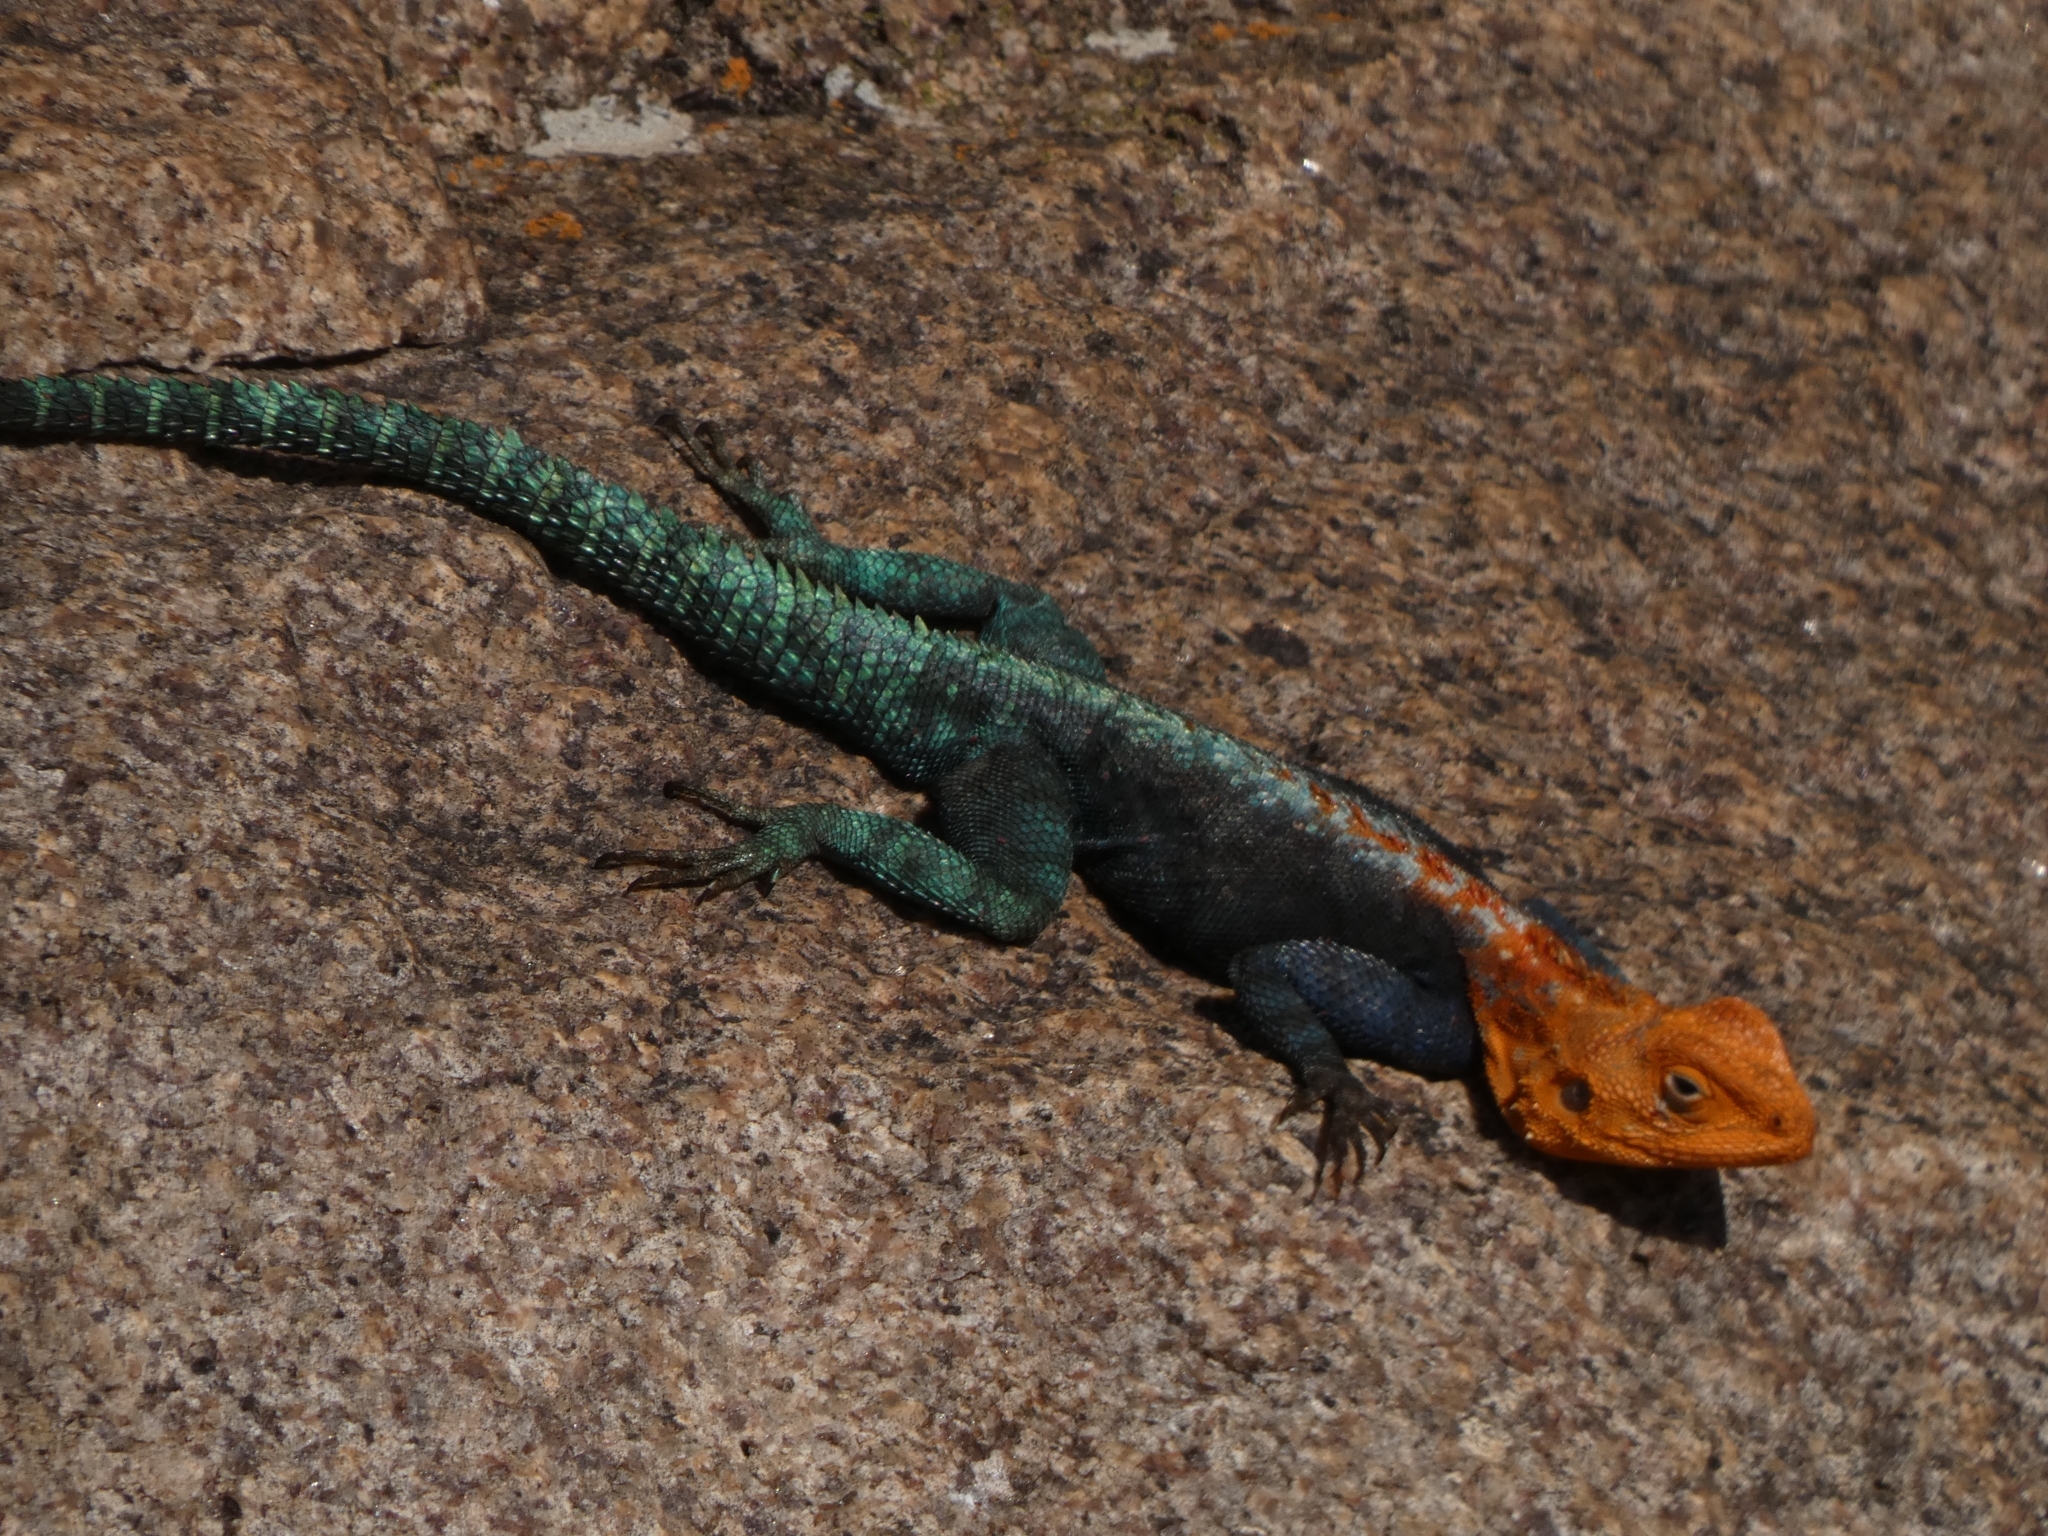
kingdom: Animalia
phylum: Chordata
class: Squamata
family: Agamidae
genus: Agama
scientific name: Agama kirkii
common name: Kirk's rock agama
